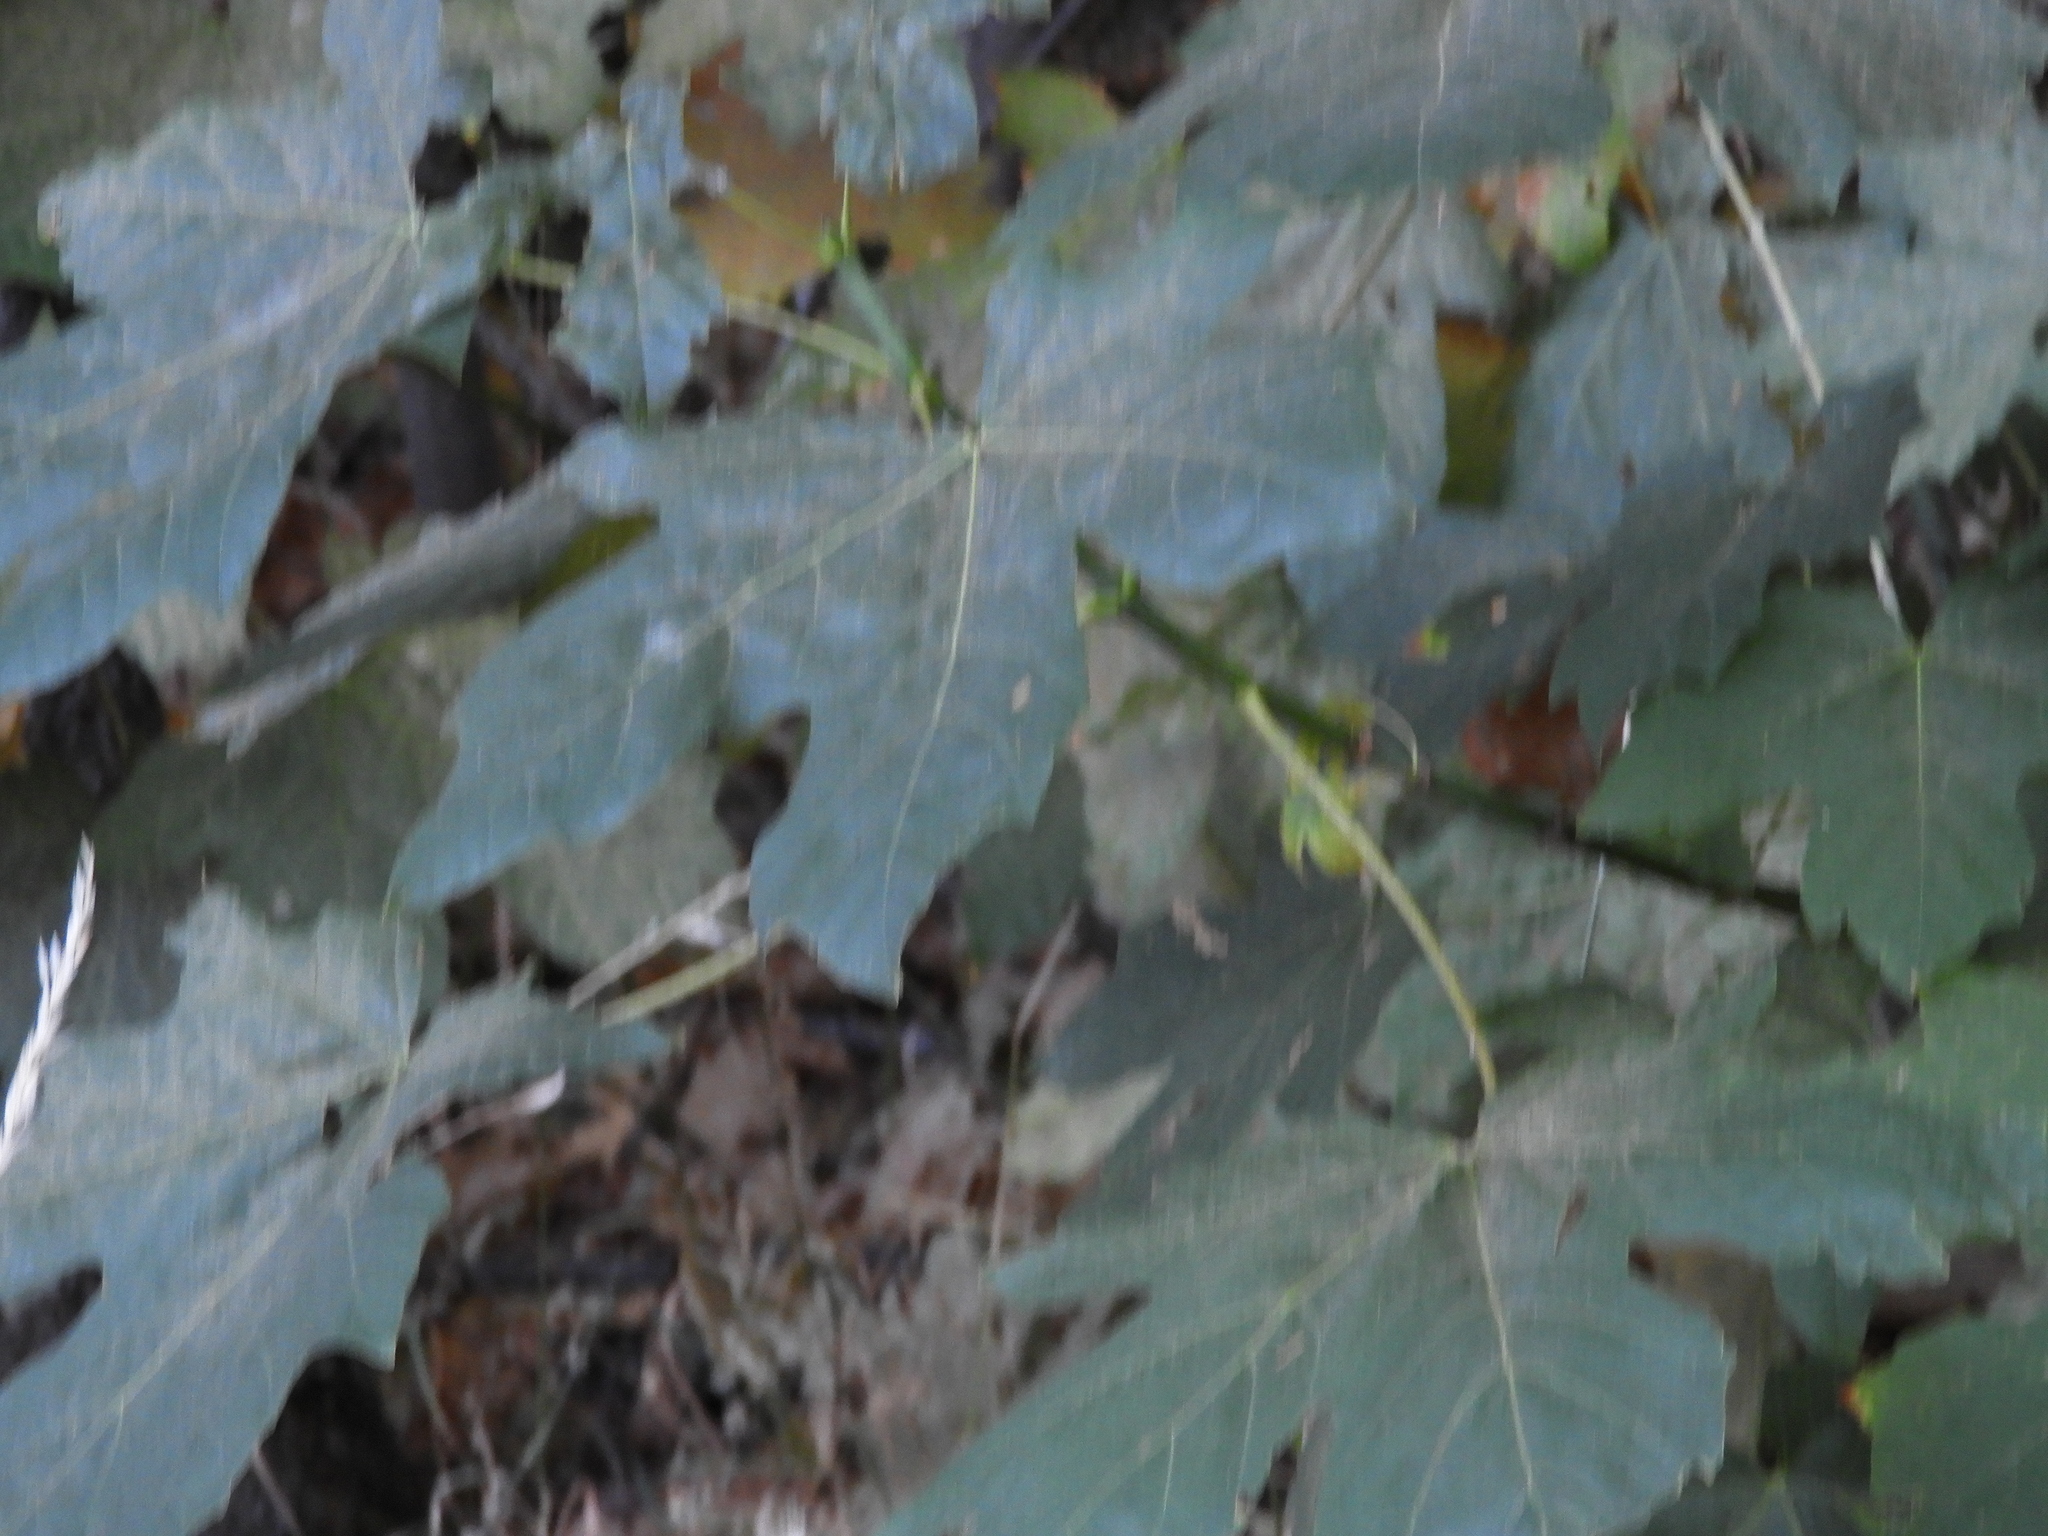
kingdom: Plantae
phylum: Tracheophyta
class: Magnoliopsida
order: Sapindales
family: Sapindaceae
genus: Acer
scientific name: Acer macrophyllum
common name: Oregon maple
